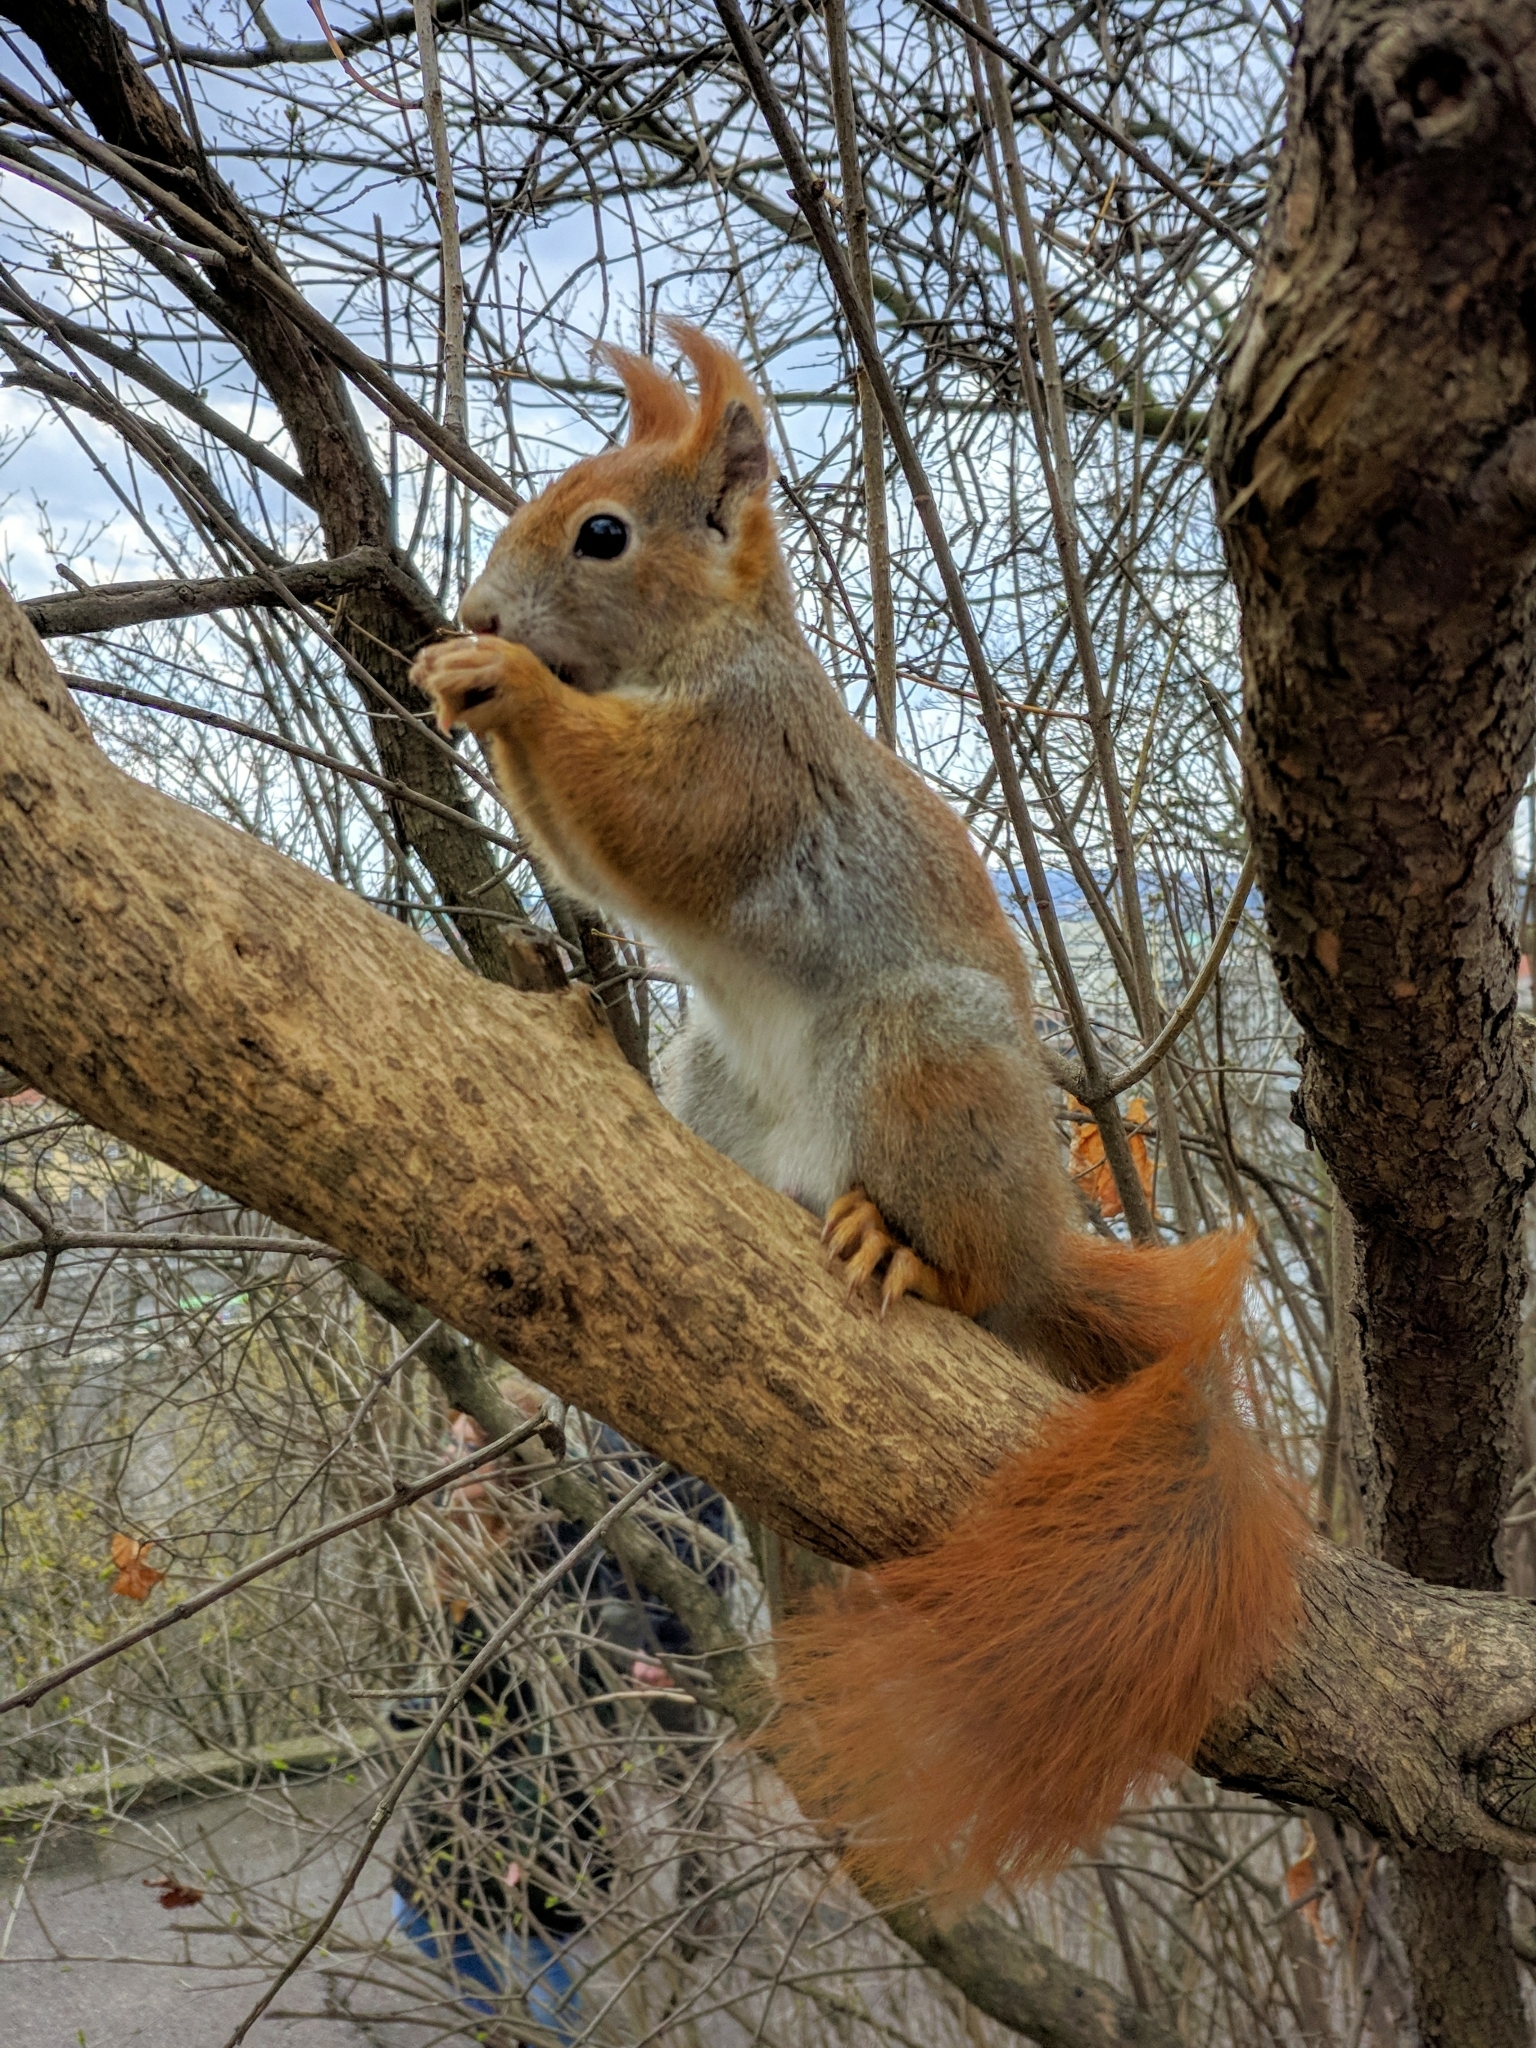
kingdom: Animalia
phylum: Chordata
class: Mammalia
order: Rodentia
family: Sciuridae
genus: Sciurus
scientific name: Sciurus vulgaris
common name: Eurasian red squirrel
